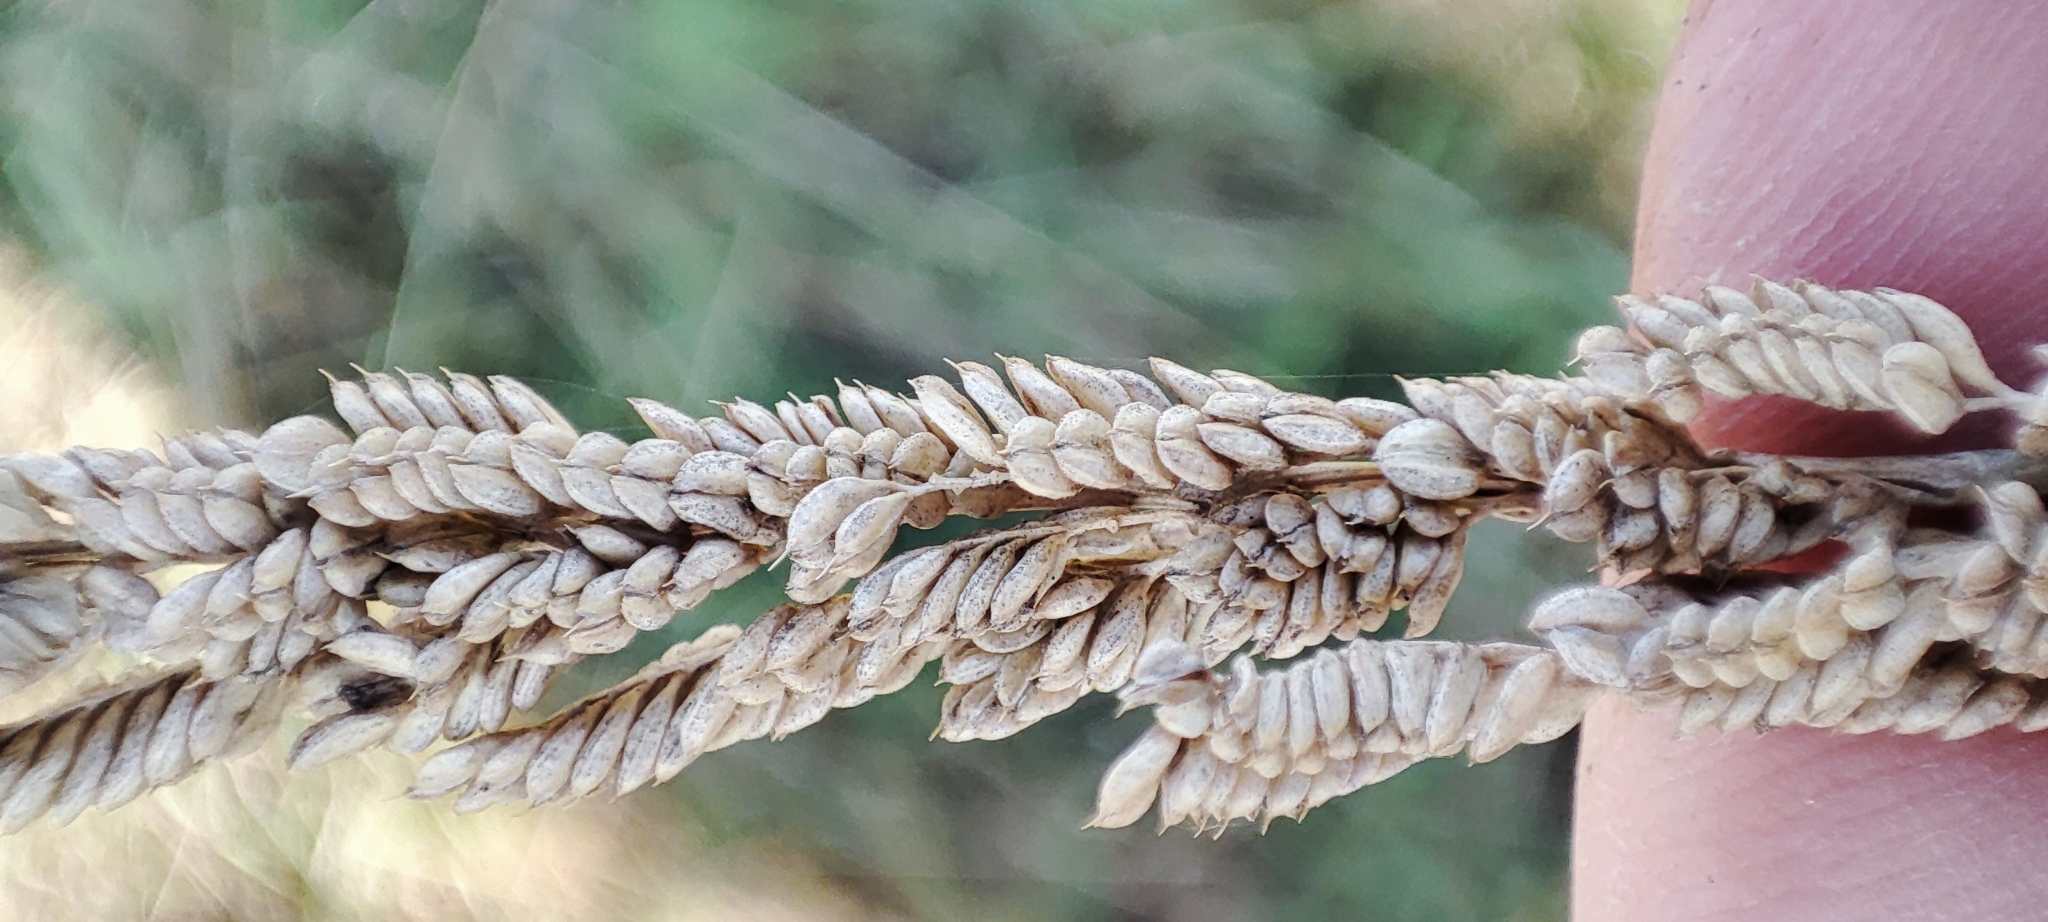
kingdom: Plantae
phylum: Tracheophyta
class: Liliopsida
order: Poales
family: Poaceae
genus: Beckmannia
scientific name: Beckmannia syzigachne
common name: American slough-grass
